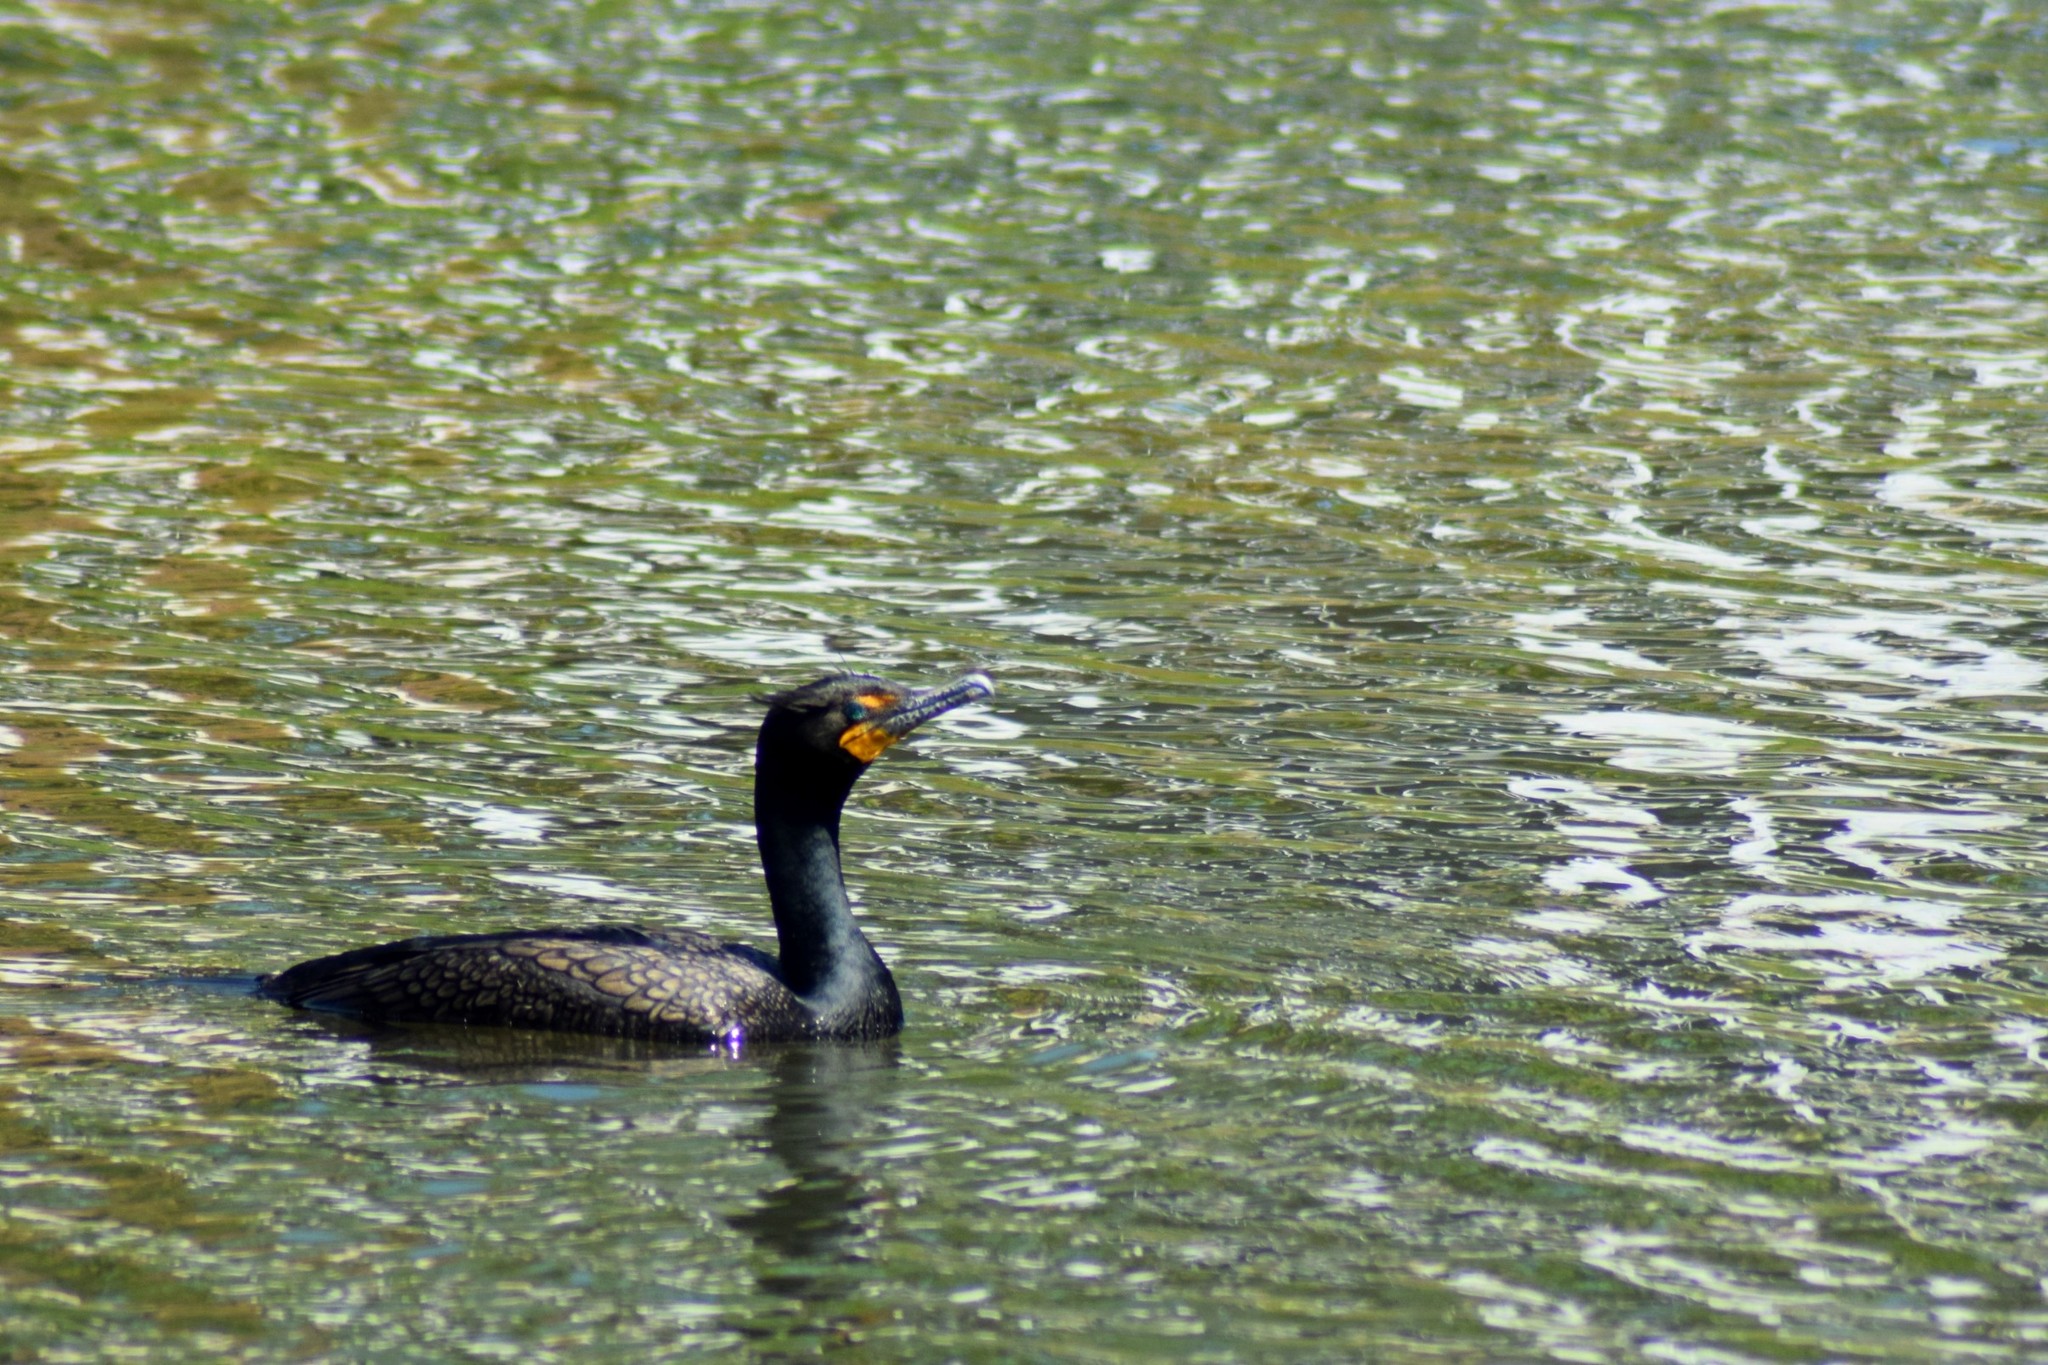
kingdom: Animalia
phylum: Chordata
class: Aves
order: Suliformes
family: Phalacrocoracidae
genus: Phalacrocorax
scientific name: Phalacrocorax auritus
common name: Double-crested cormorant
